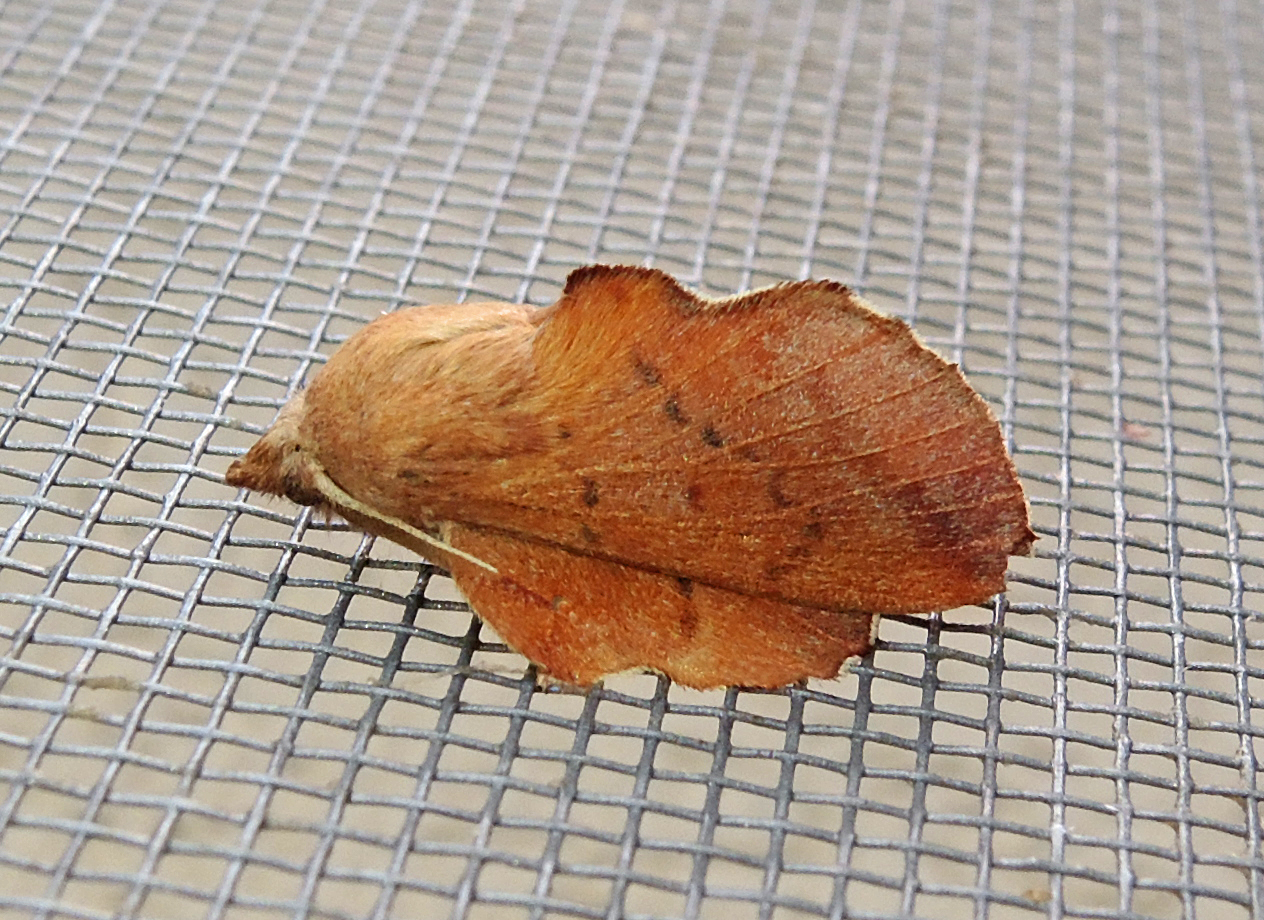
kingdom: Animalia
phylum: Arthropoda
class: Insecta
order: Lepidoptera
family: Lasiocampidae
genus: Phyllodesma
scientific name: Phyllodesma ilicifolia
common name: Small lappet
